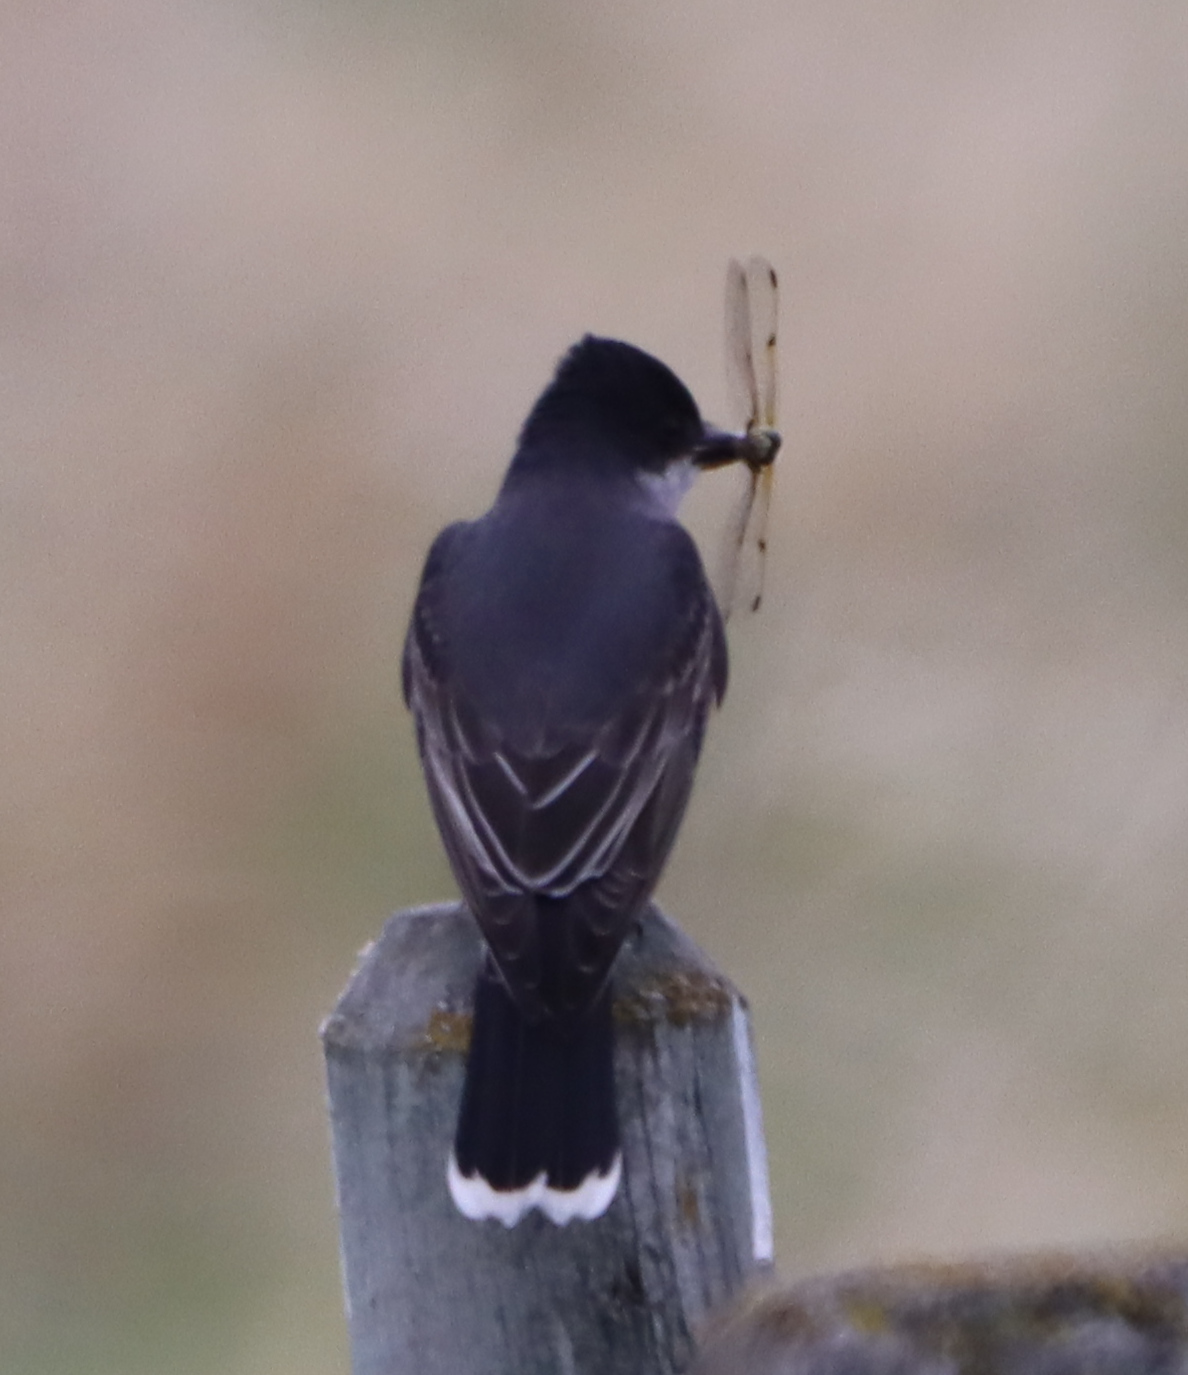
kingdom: Animalia
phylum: Chordata
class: Aves
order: Passeriformes
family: Tyrannidae
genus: Tyrannus
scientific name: Tyrannus tyrannus
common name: Eastern kingbird
